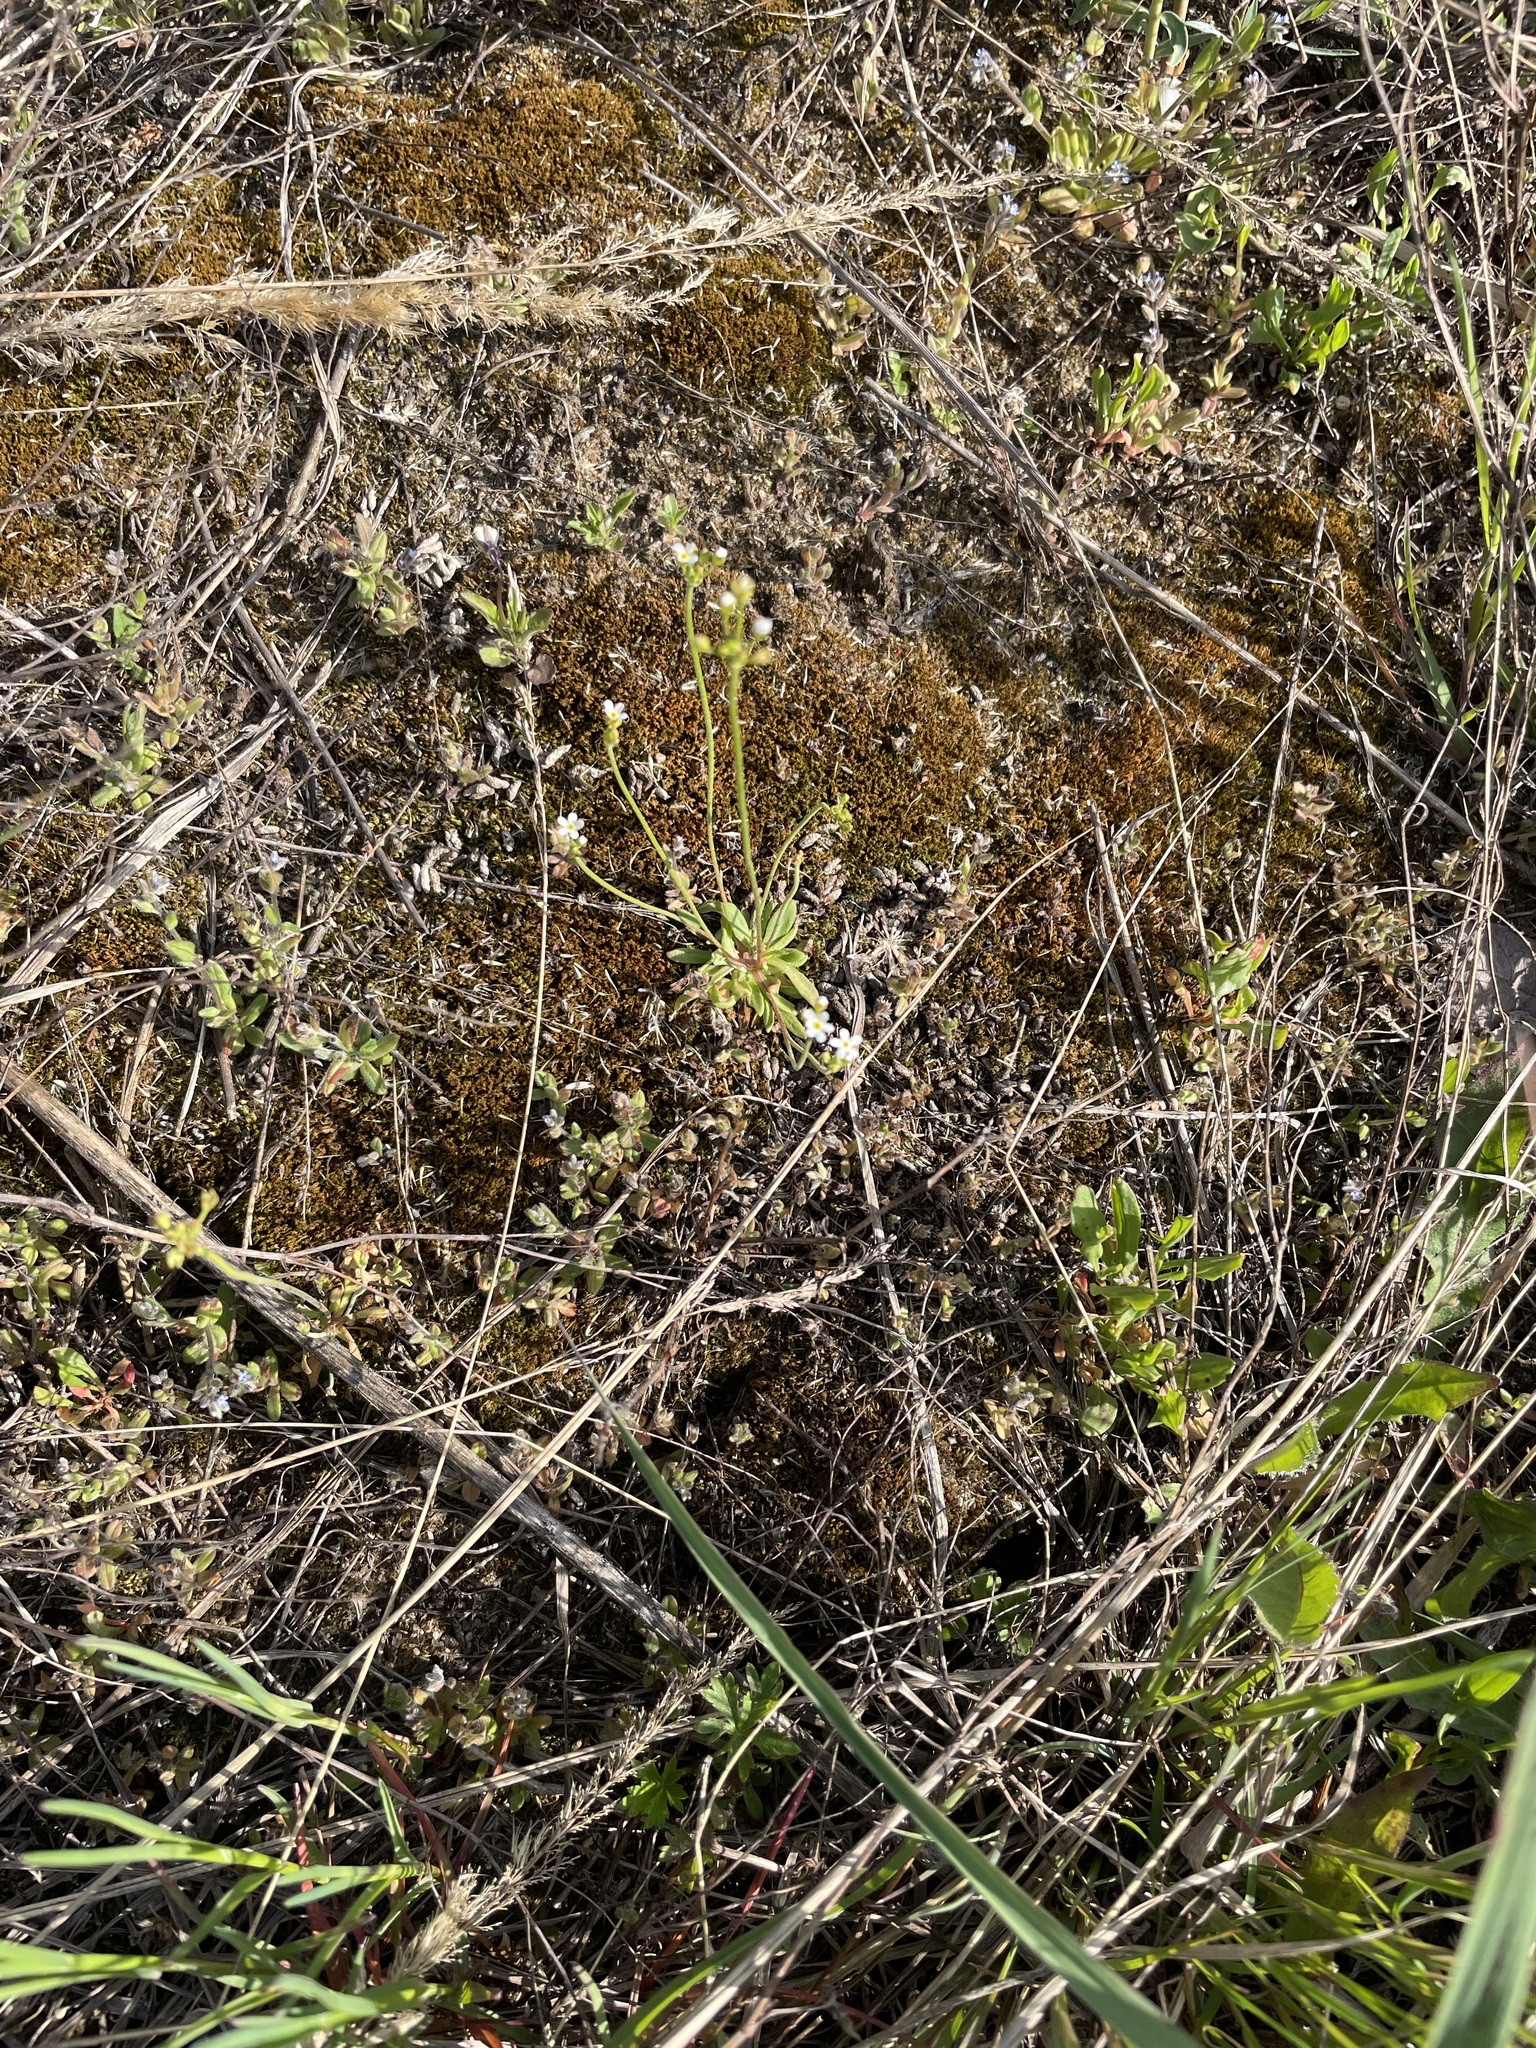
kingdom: Plantae
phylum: Tracheophyta
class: Magnoliopsida
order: Ericales
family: Primulaceae
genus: Androsace
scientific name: Androsace septentrionalis
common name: Hairy northern fairy-candelabra
